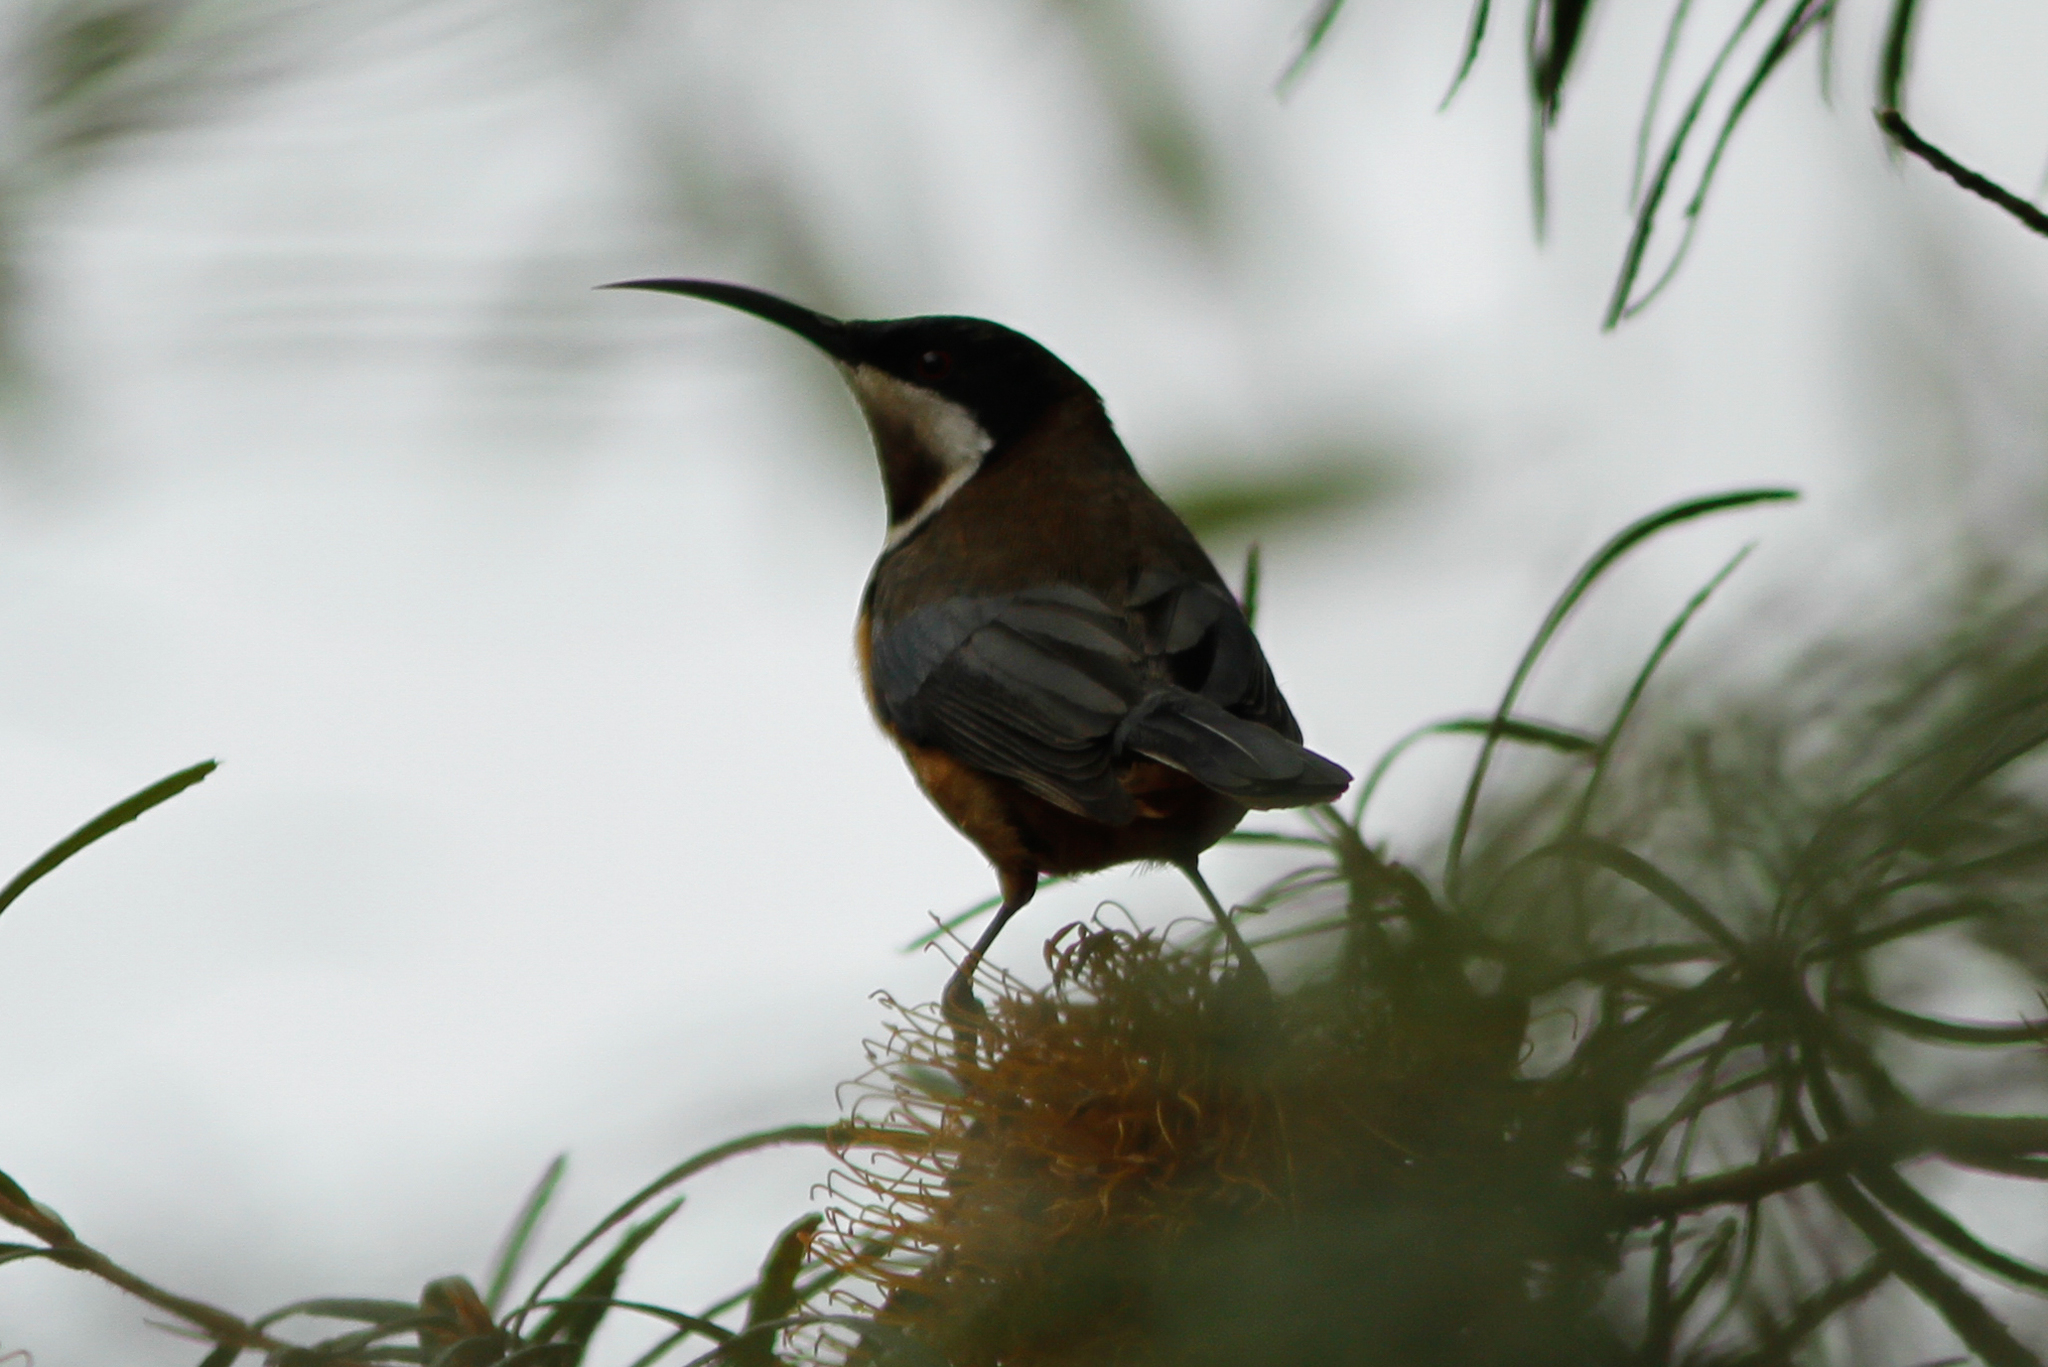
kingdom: Animalia
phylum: Chordata
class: Aves
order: Passeriformes
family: Meliphagidae
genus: Acanthorhynchus
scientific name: Acanthorhynchus tenuirostris
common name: Eastern spinebill
